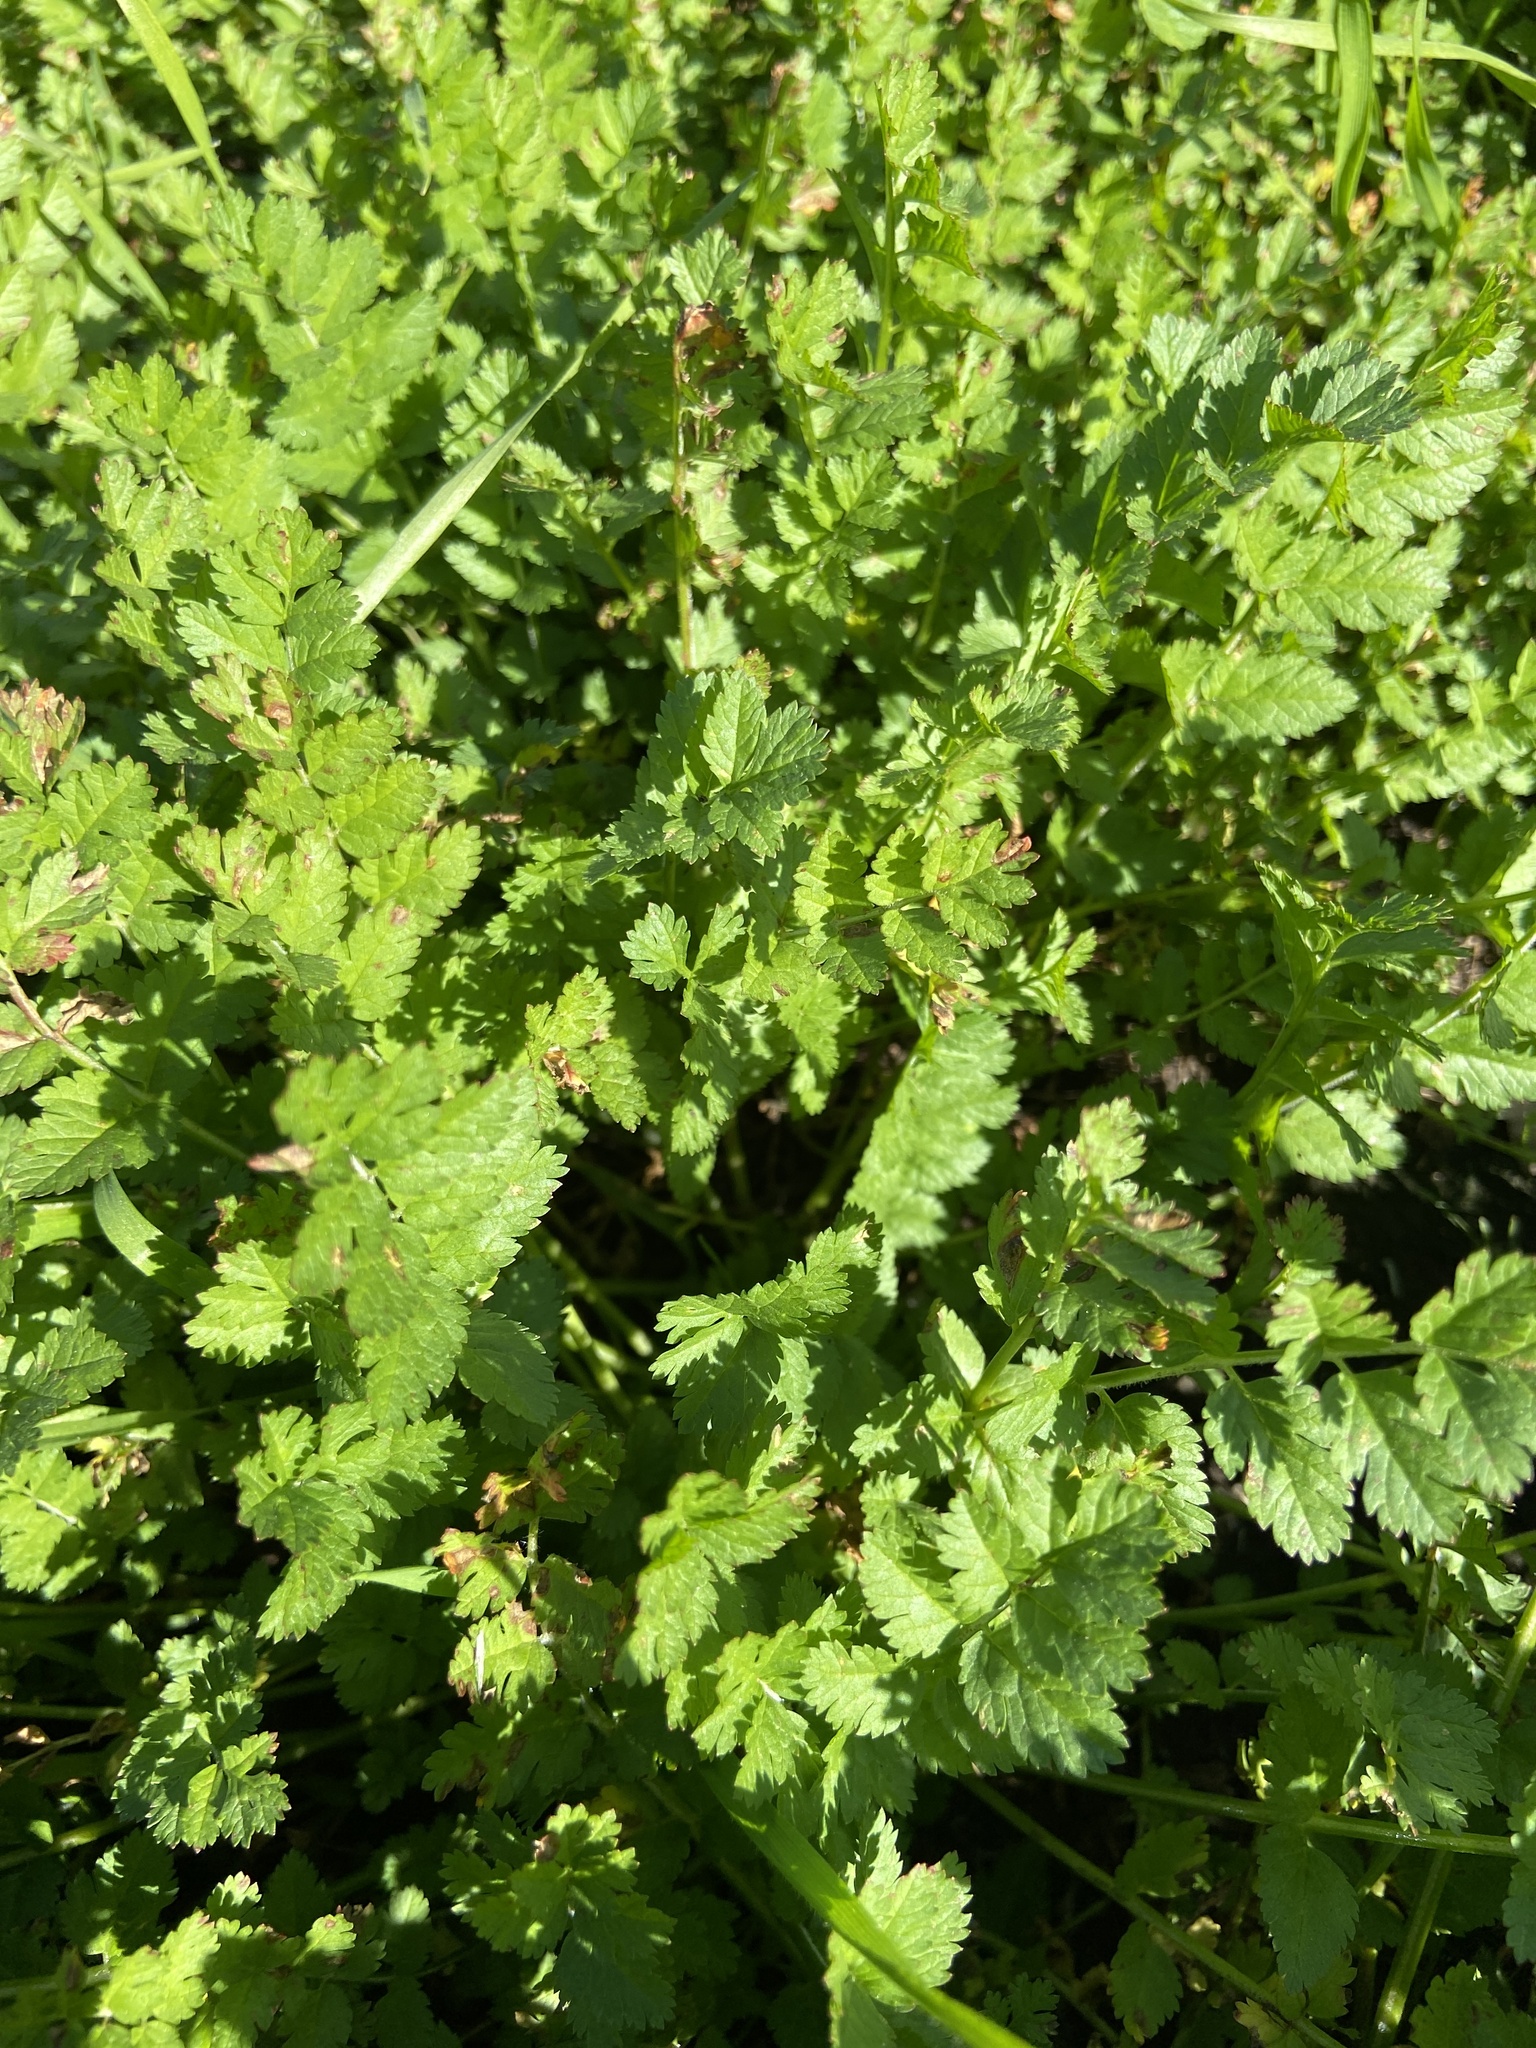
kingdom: Plantae
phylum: Tracheophyta
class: Magnoliopsida
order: Geraniales
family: Geraniaceae
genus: Erodium
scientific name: Erodium moschatum
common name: Musk stork's-bill
